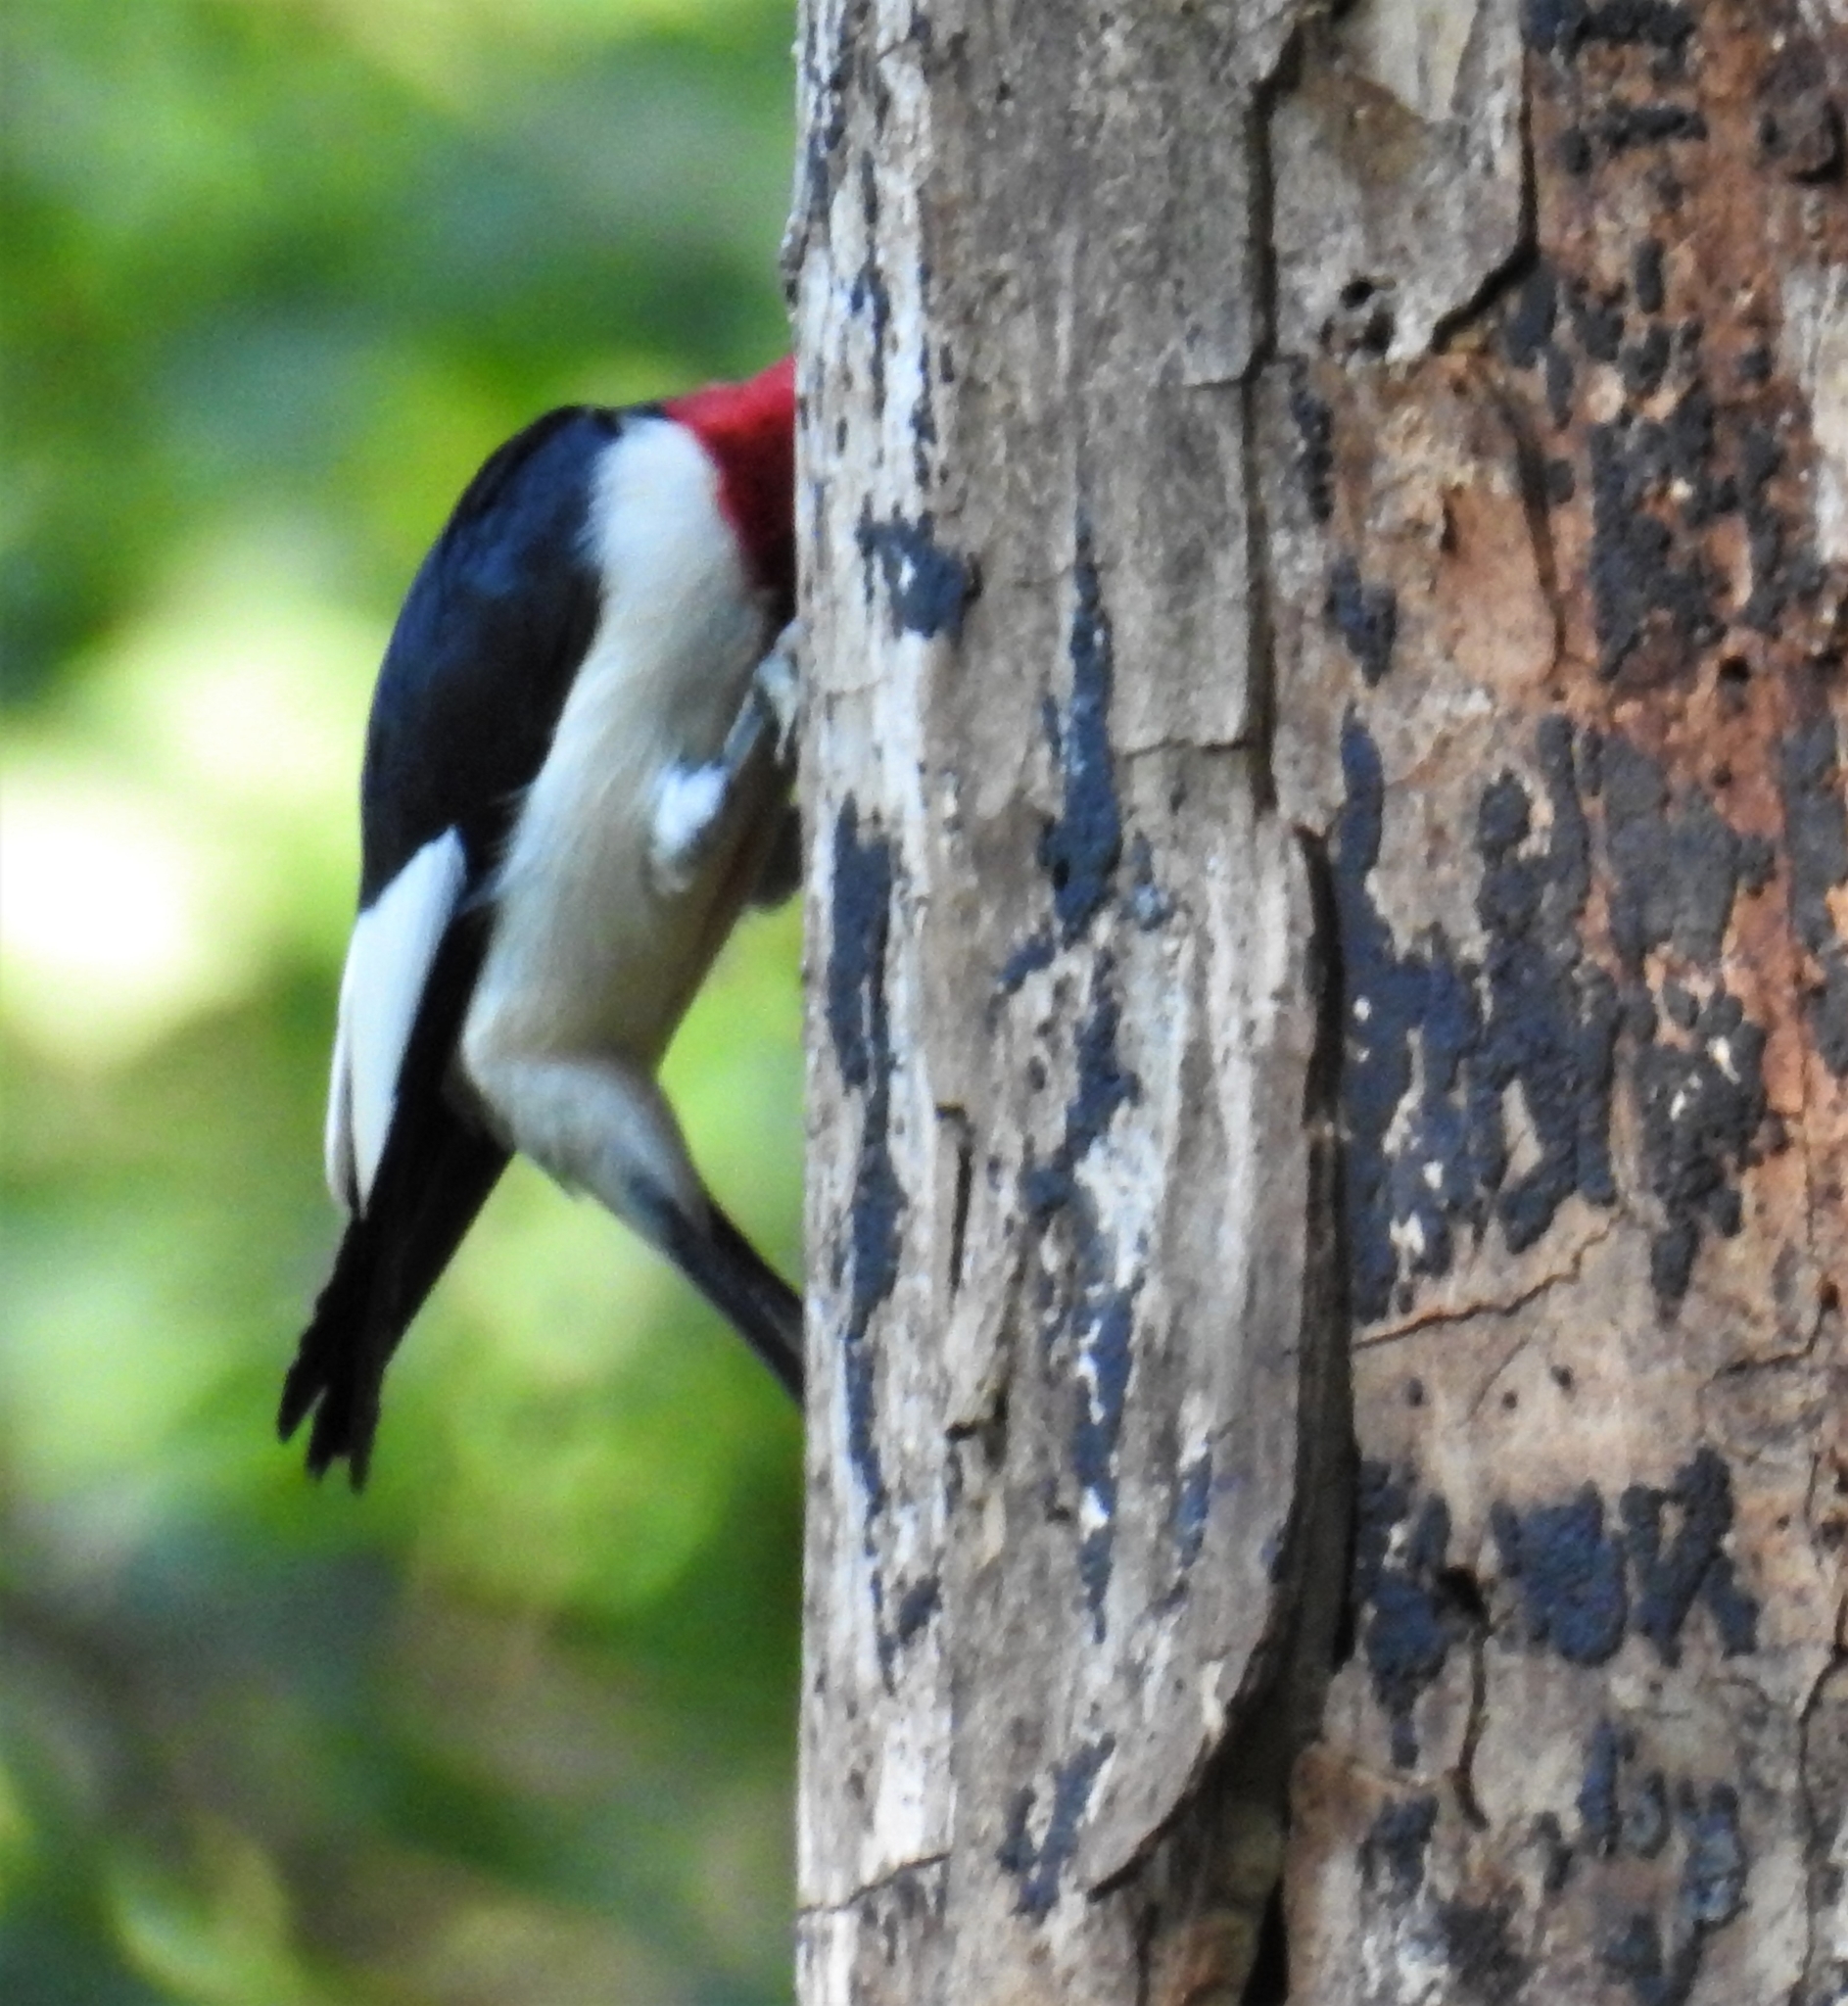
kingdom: Animalia
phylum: Chordata
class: Aves
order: Piciformes
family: Picidae
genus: Melanerpes
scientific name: Melanerpes erythrocephalus
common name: Red-headed woodpecker
